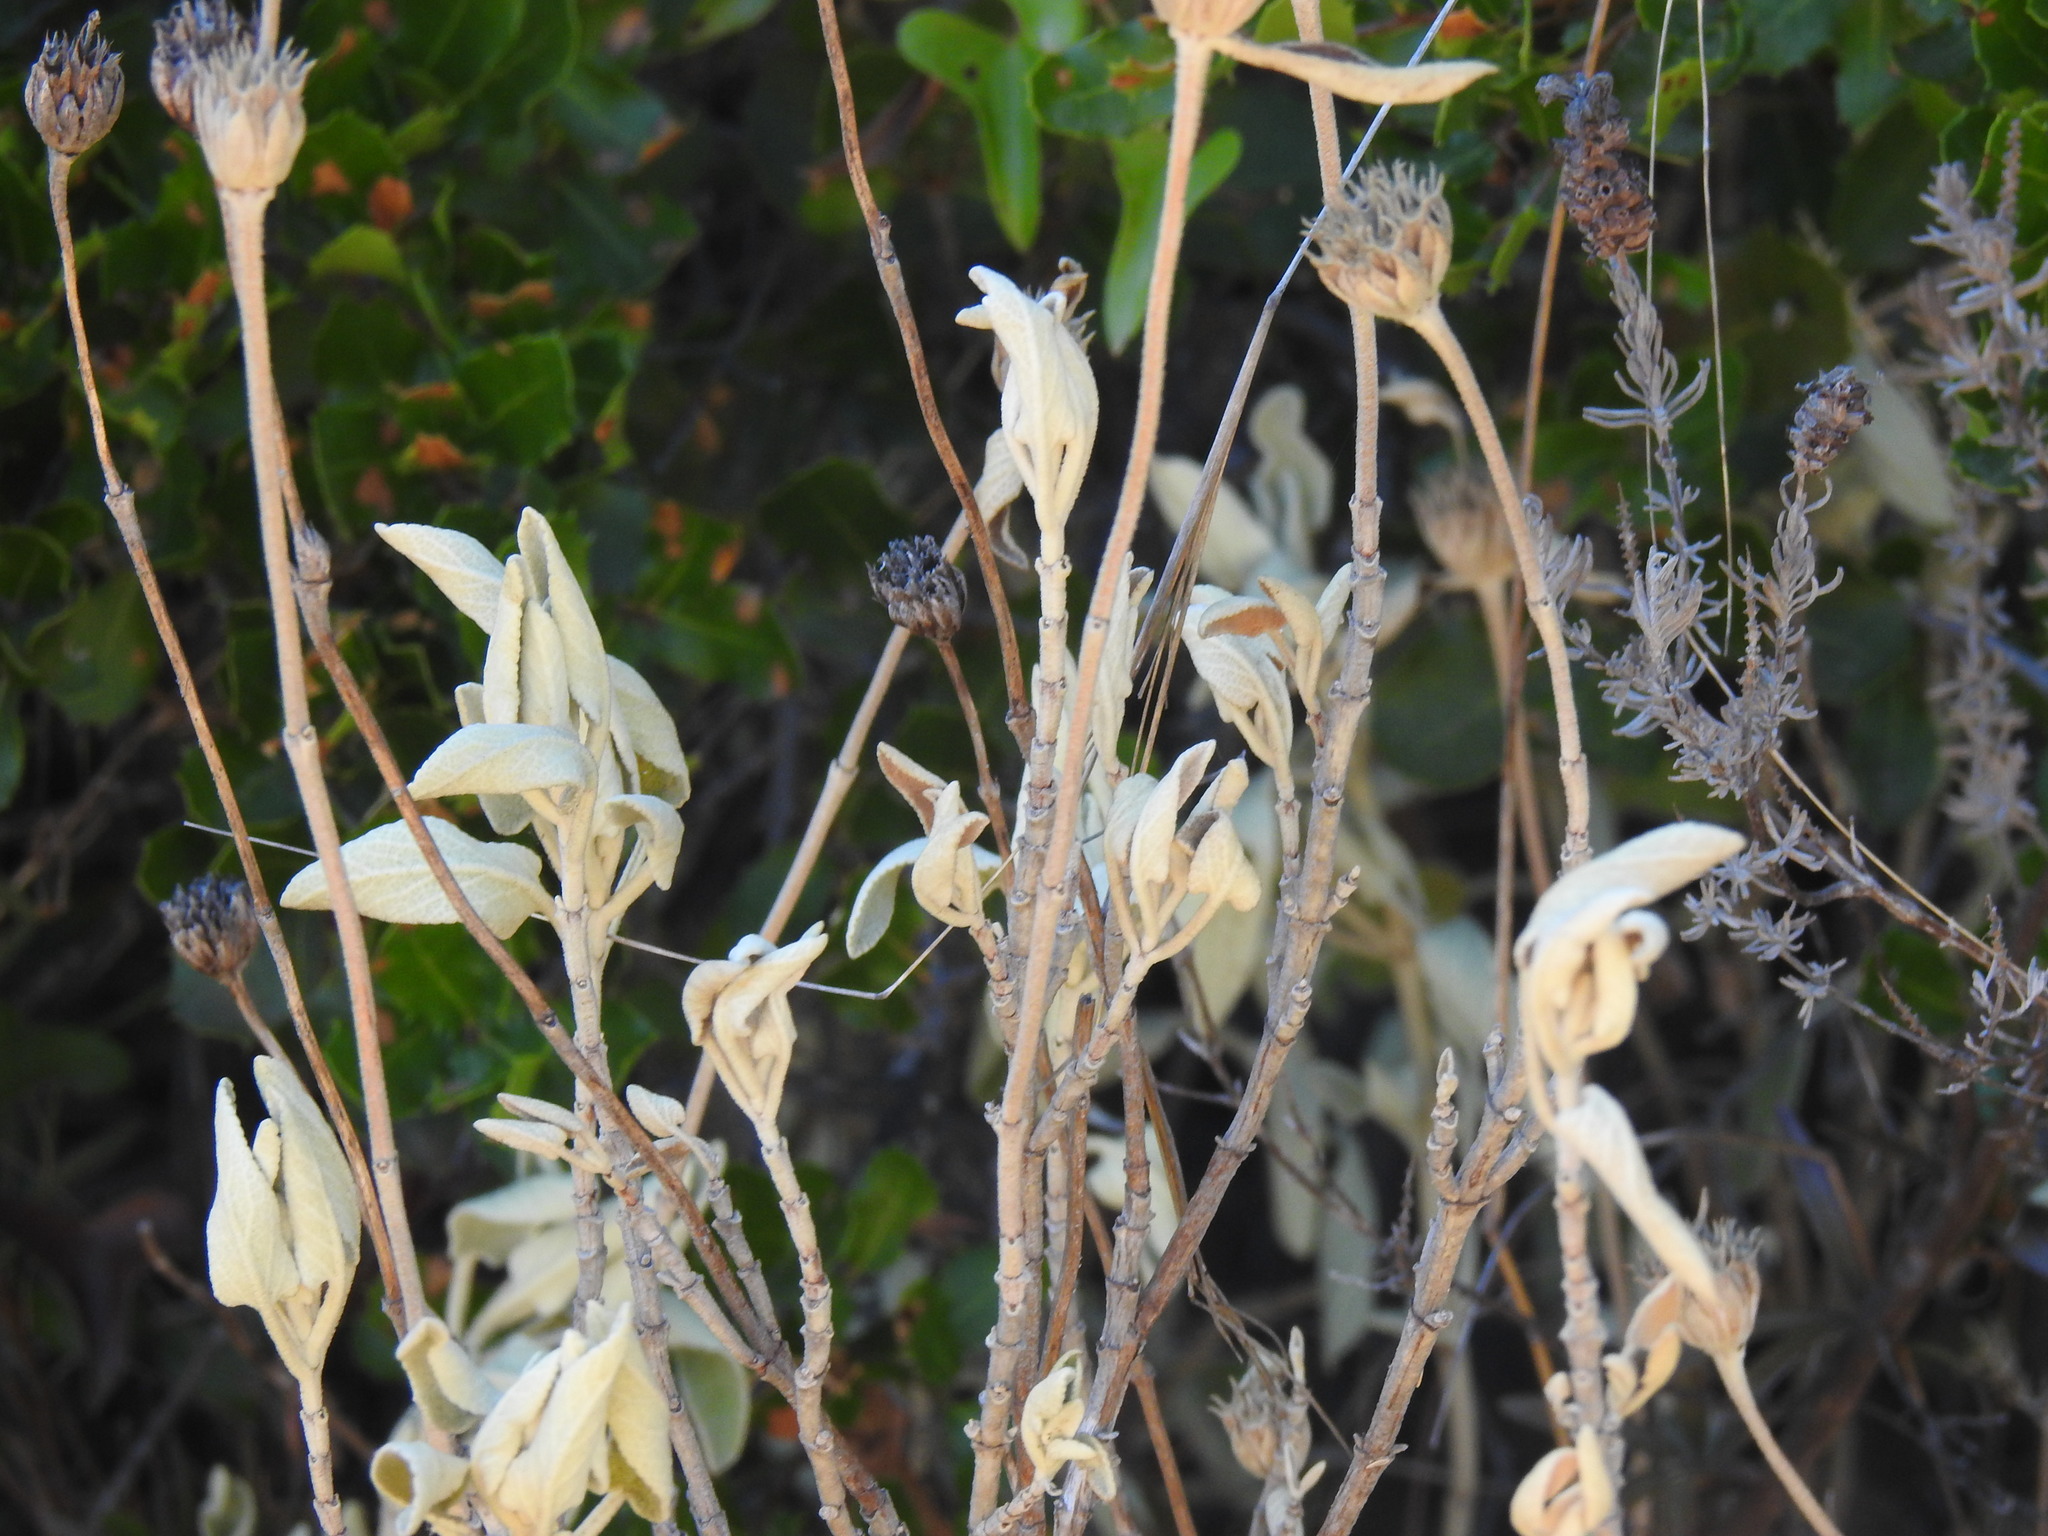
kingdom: Plantae
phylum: Tracheophyta
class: Magnoliopsida
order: Lamiales
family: Lamiaceae
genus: Phlomis
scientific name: Phlomis purpurea
